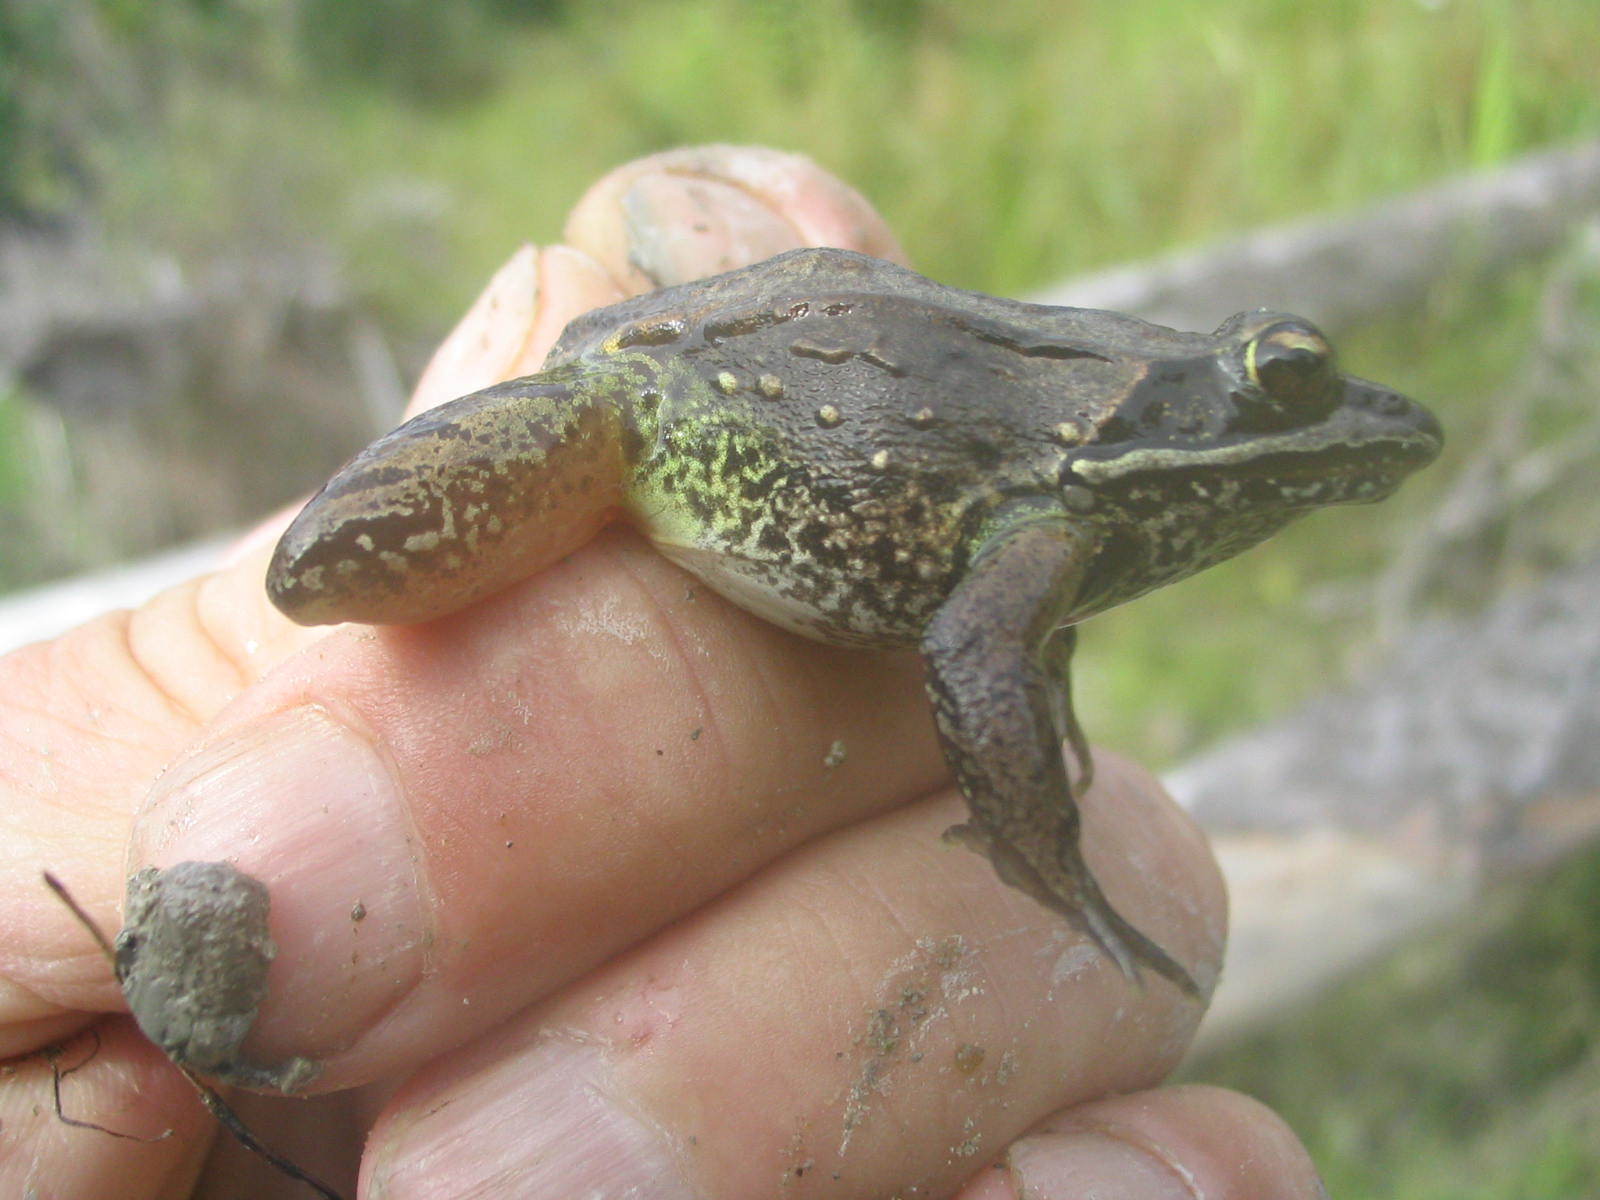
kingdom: Animalia
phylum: Chordata
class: Amphibia
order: Anura
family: Ranidae
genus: Lithobates
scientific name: Lithobates sylvaticus
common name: Wood frog
